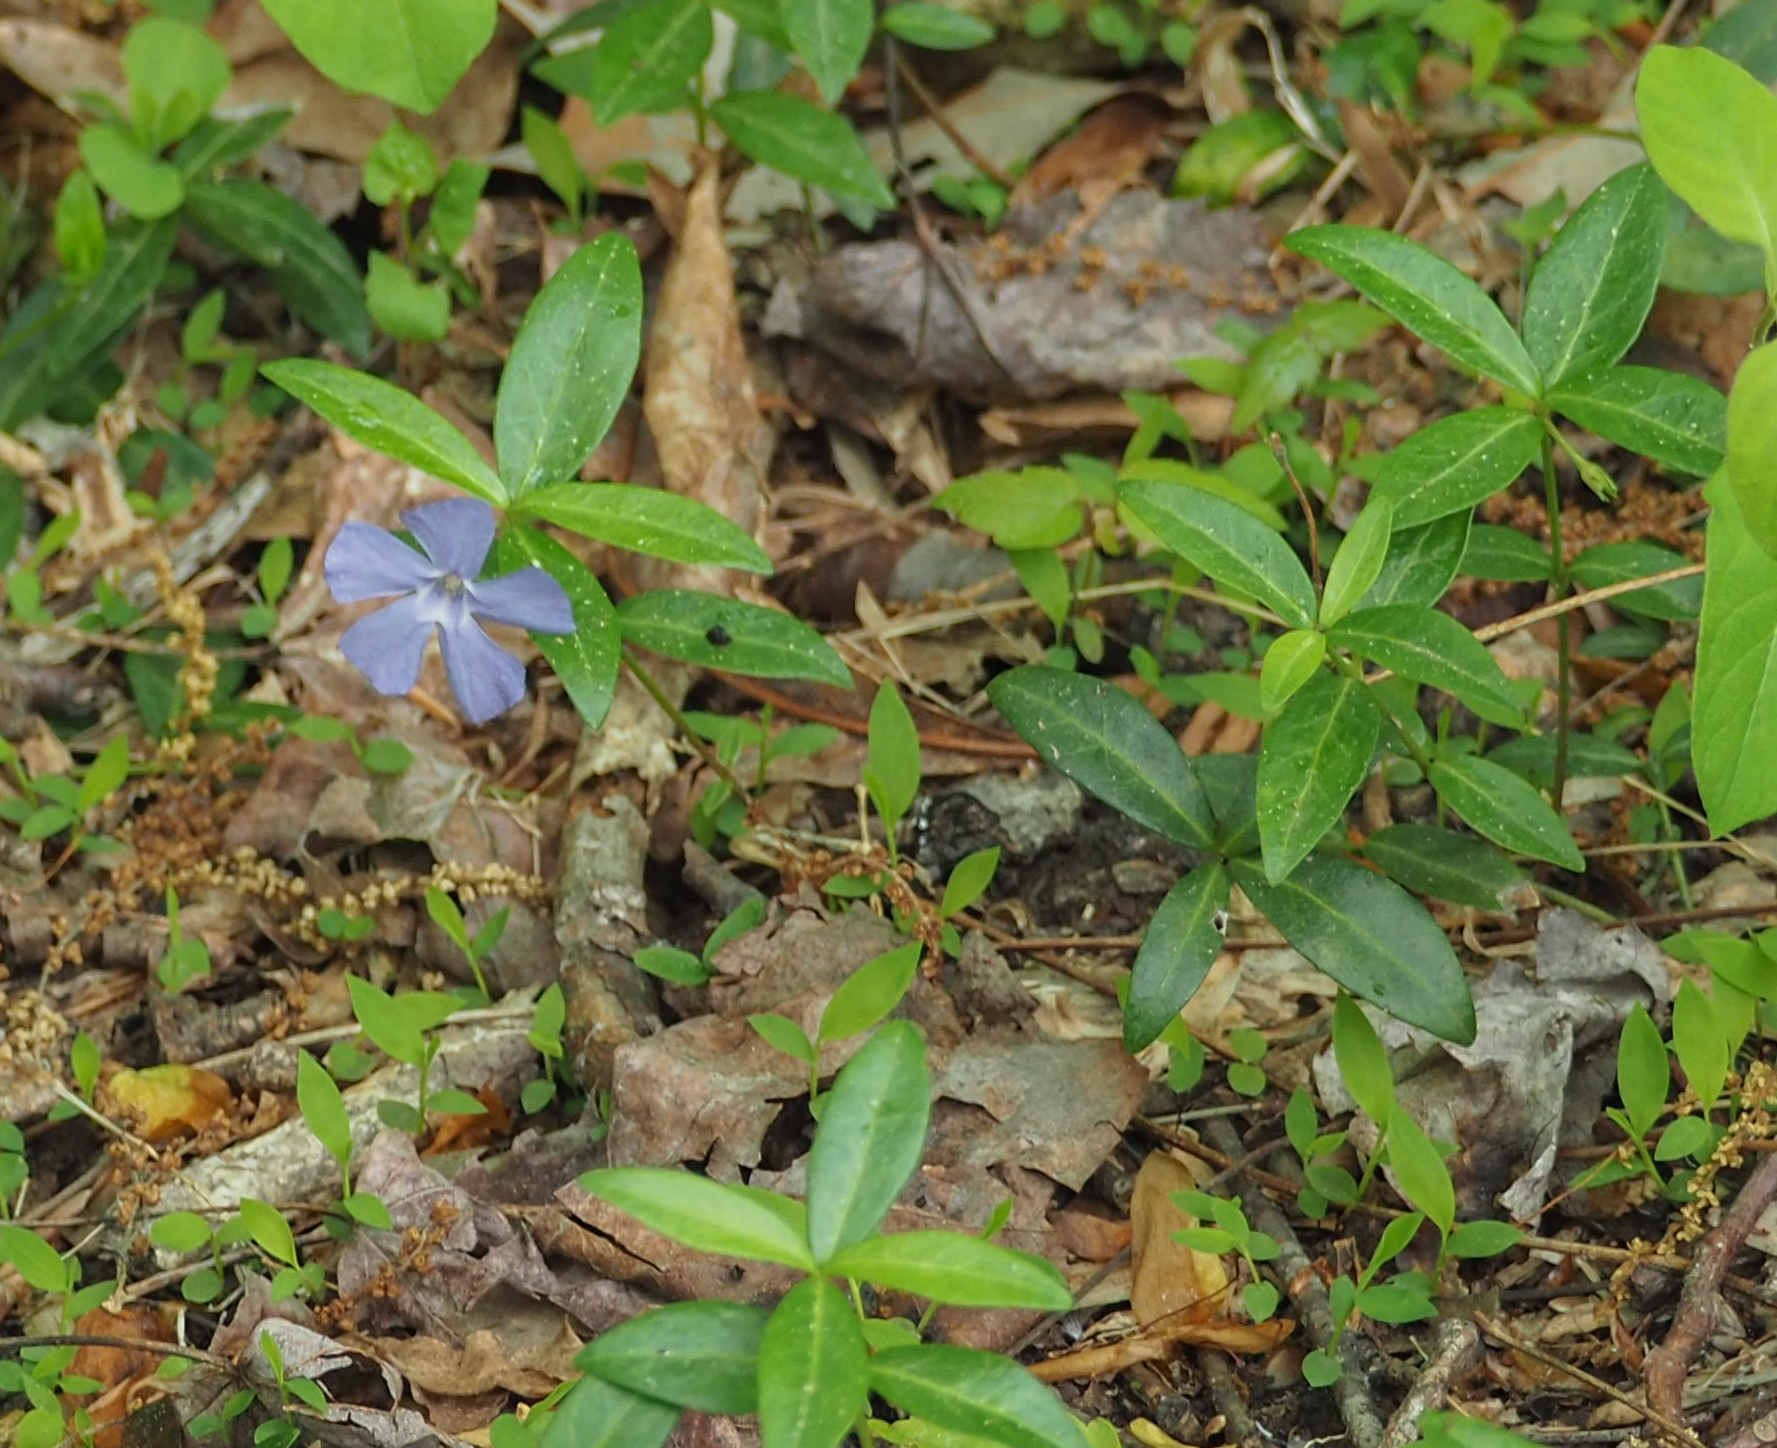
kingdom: Plantae
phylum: Tracheophyta
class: Magnoliopsida
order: Gentianales
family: Apocynaceae
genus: Vinca
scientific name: Vinca minor
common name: Lesser periwinkle
